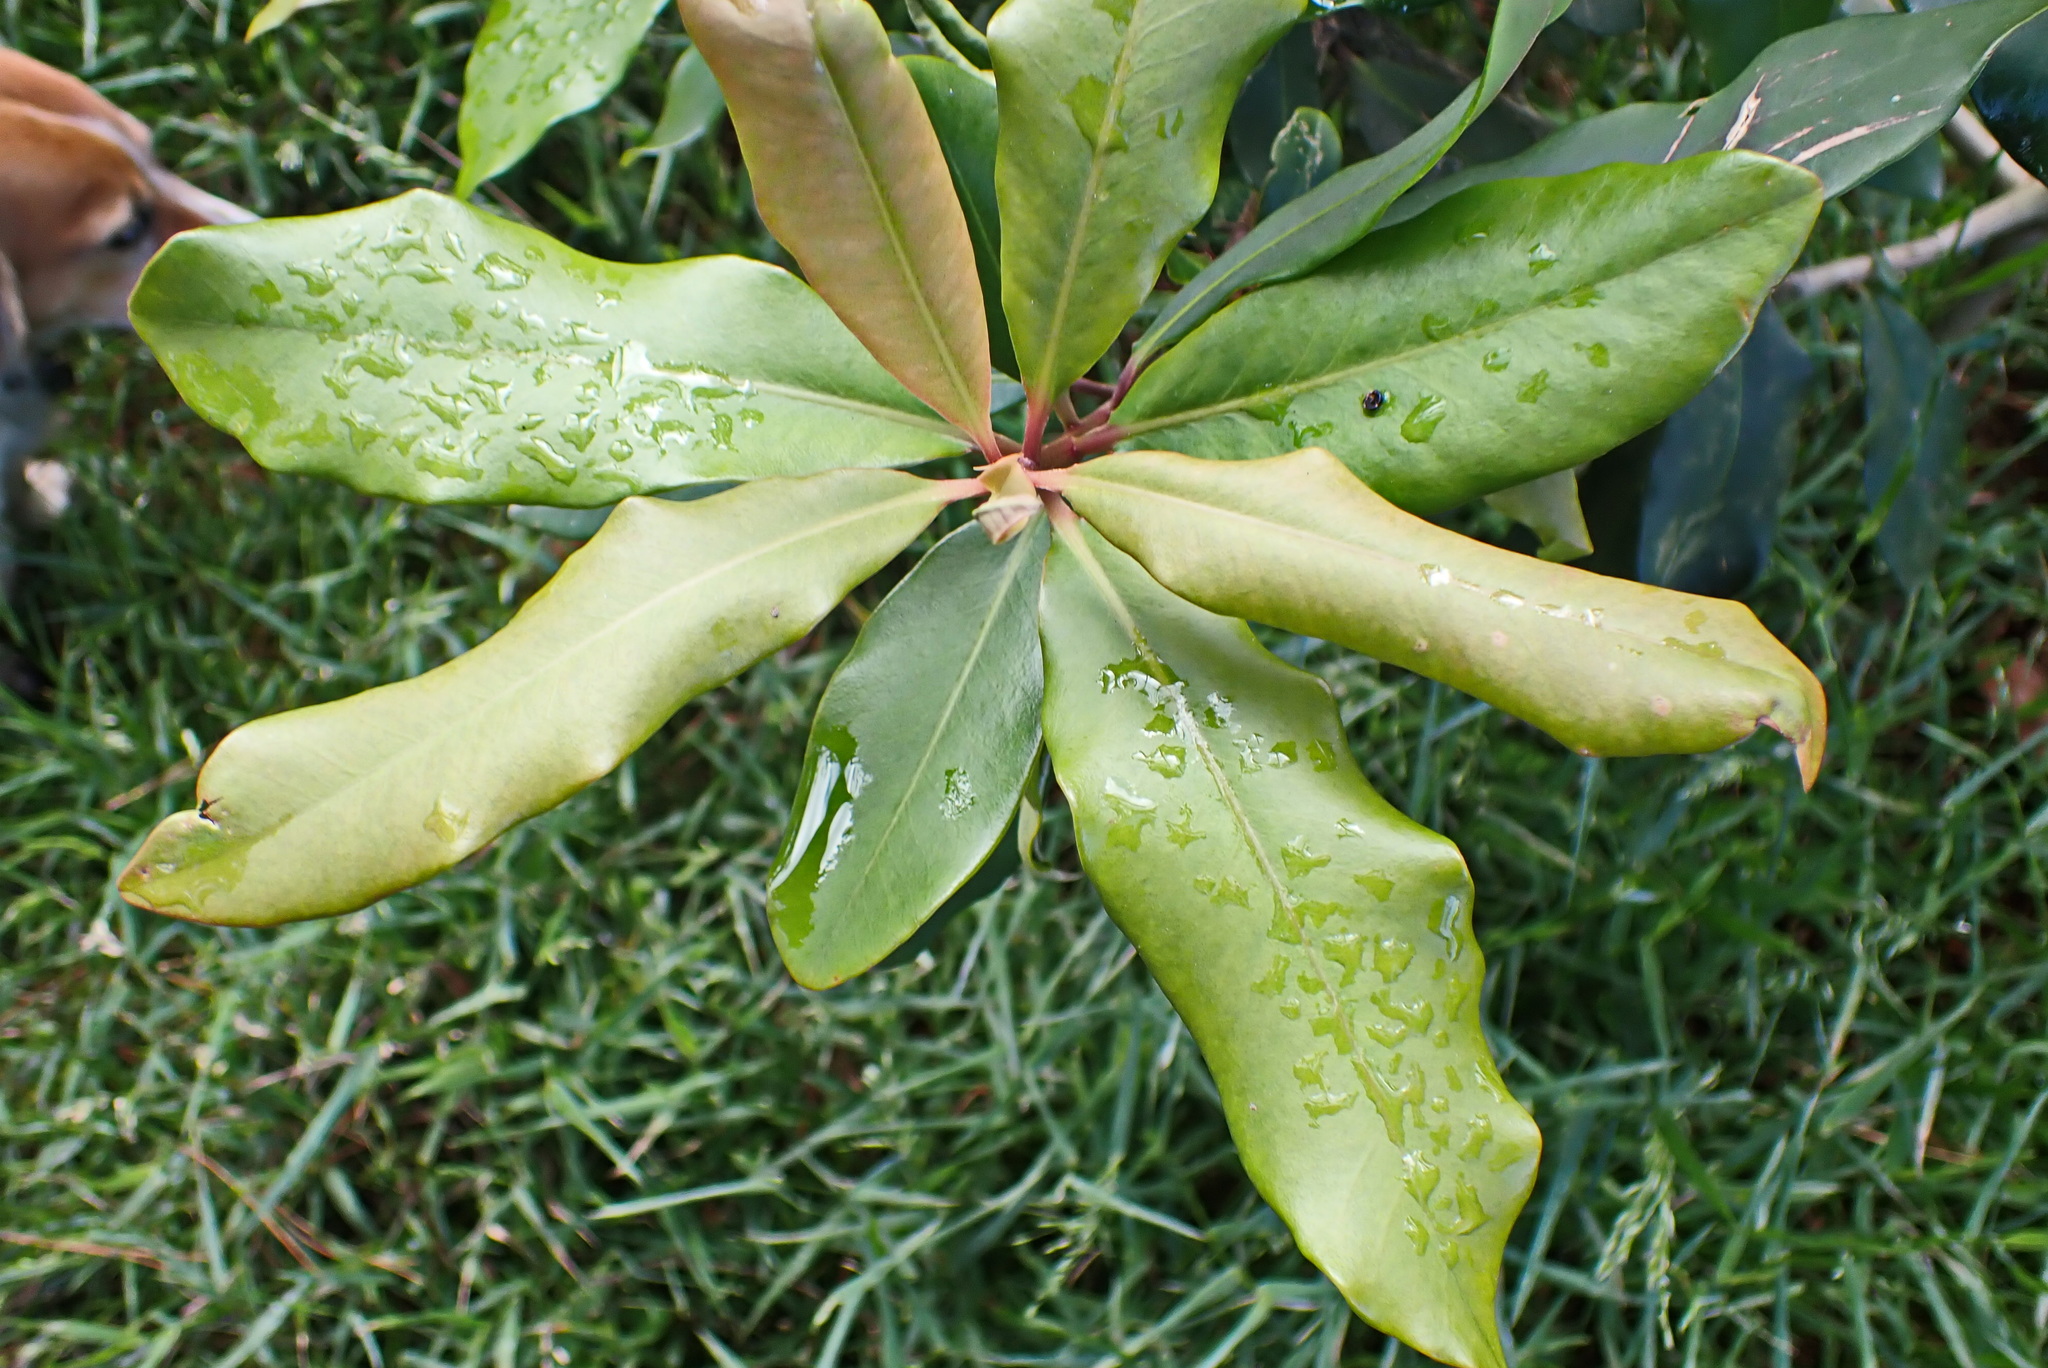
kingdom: Plantae
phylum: Tracheophyta
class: Magnoliopsida
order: Ericales
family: Primulaceae
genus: Myrsine
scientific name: Myrsine melanophloeos
